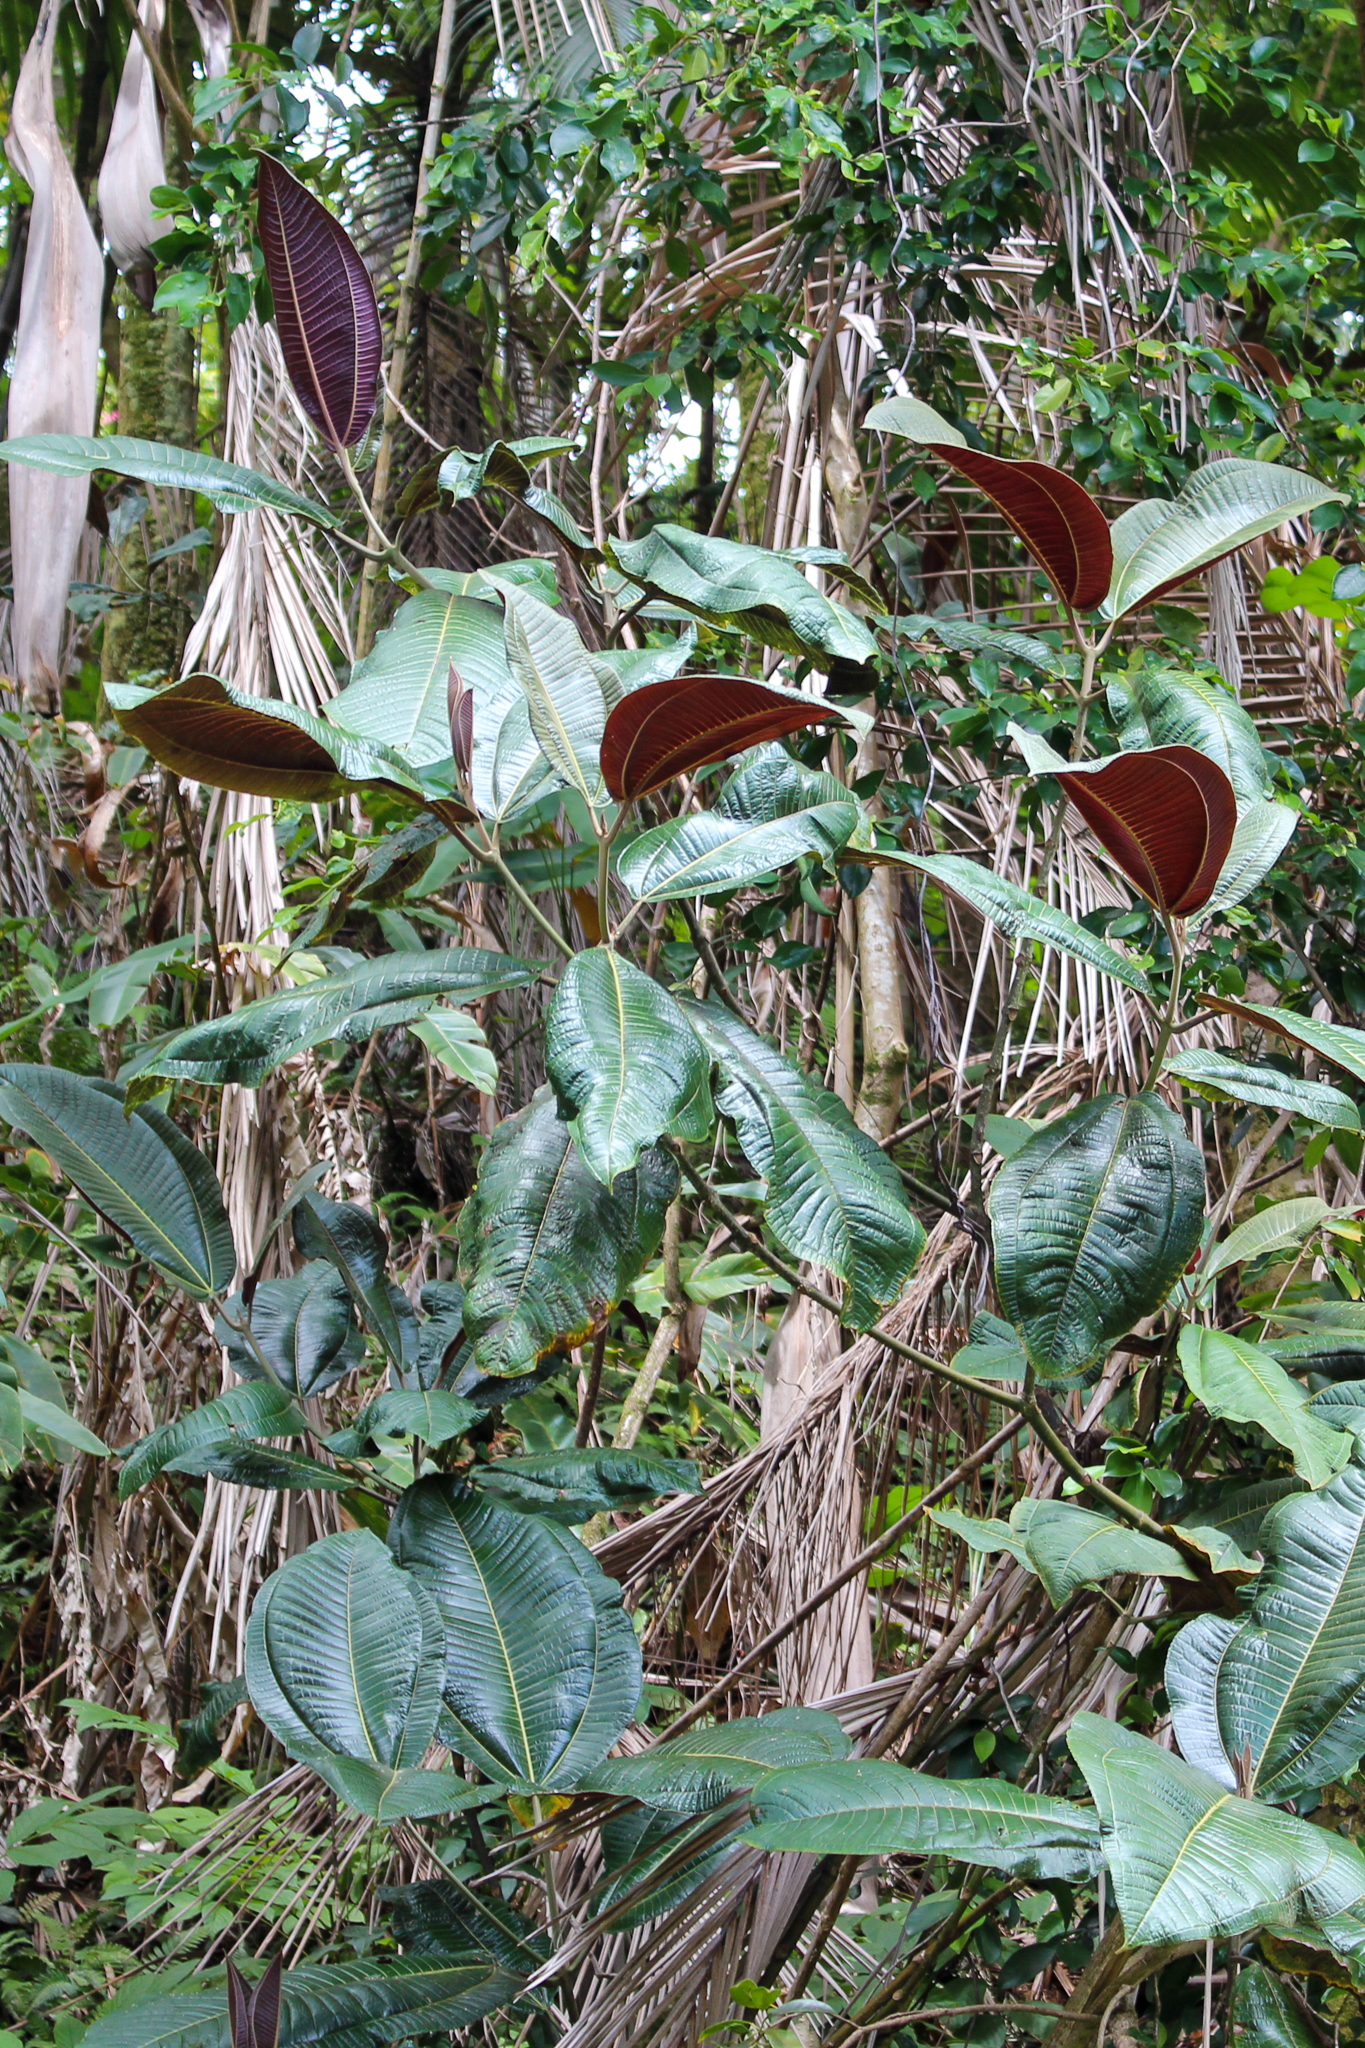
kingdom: Plantae
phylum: Tracheophyta
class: Magnoliopsida
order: Myrtales
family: Melastomataceae
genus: Miconia
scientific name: Miconia calvescens
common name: Purple plague
